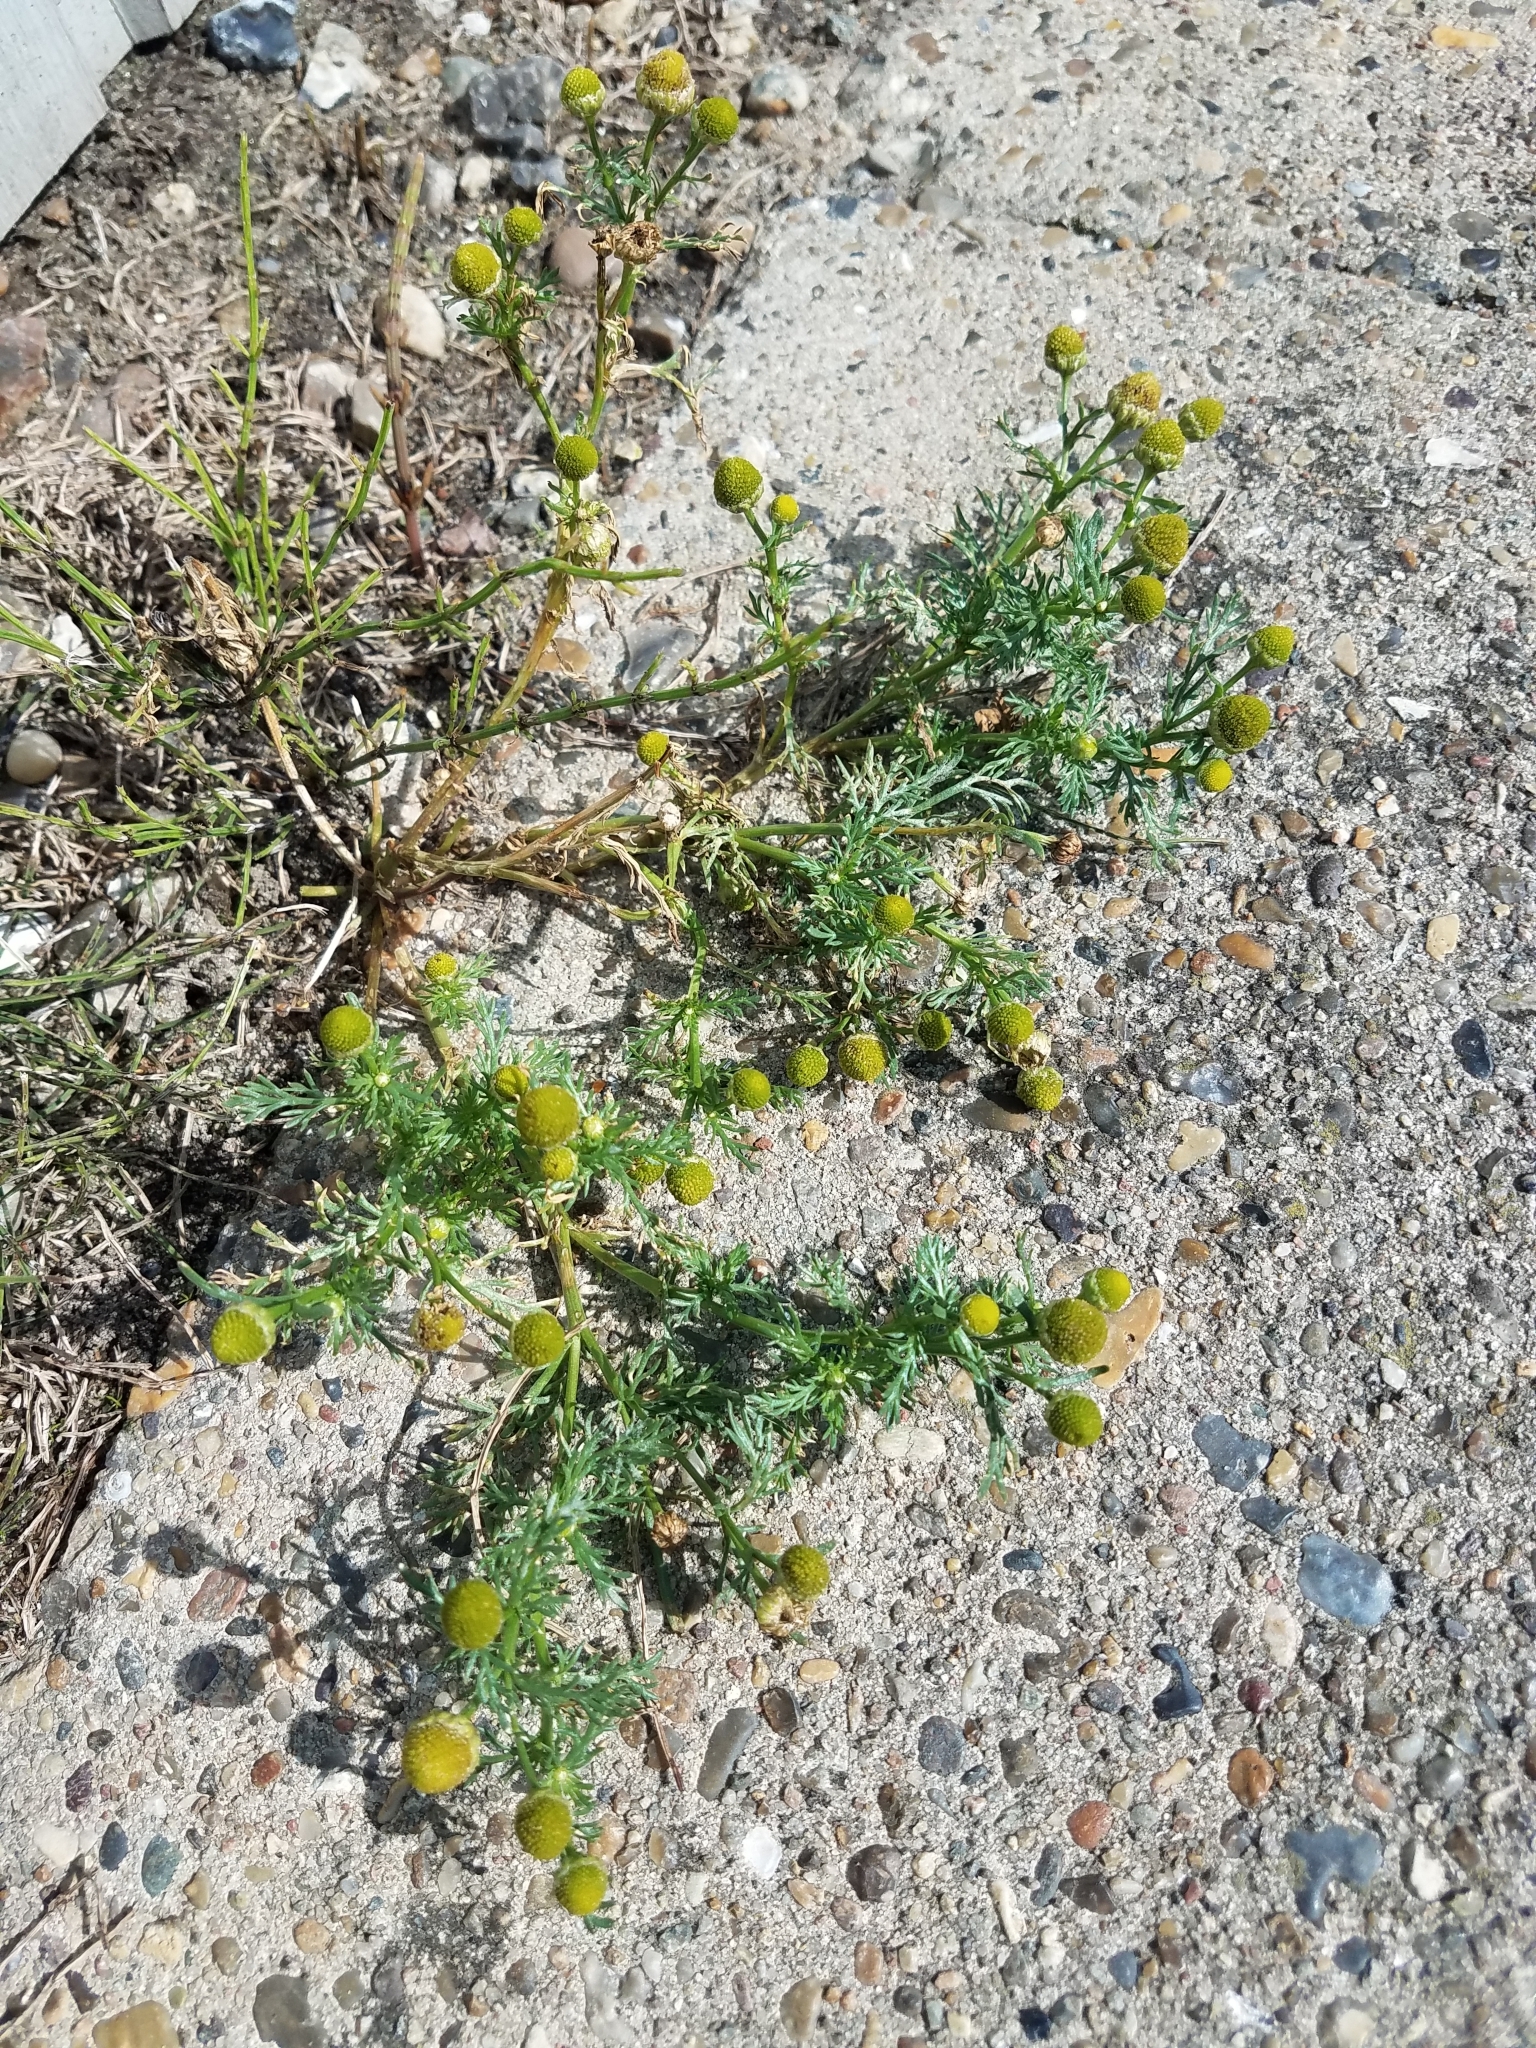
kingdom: Plantae
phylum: Tracheophyta
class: Magnoliopsida
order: Asterales
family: Asteraceae
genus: Matricaria
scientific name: Matricaria discoidea
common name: Disc mayweed
